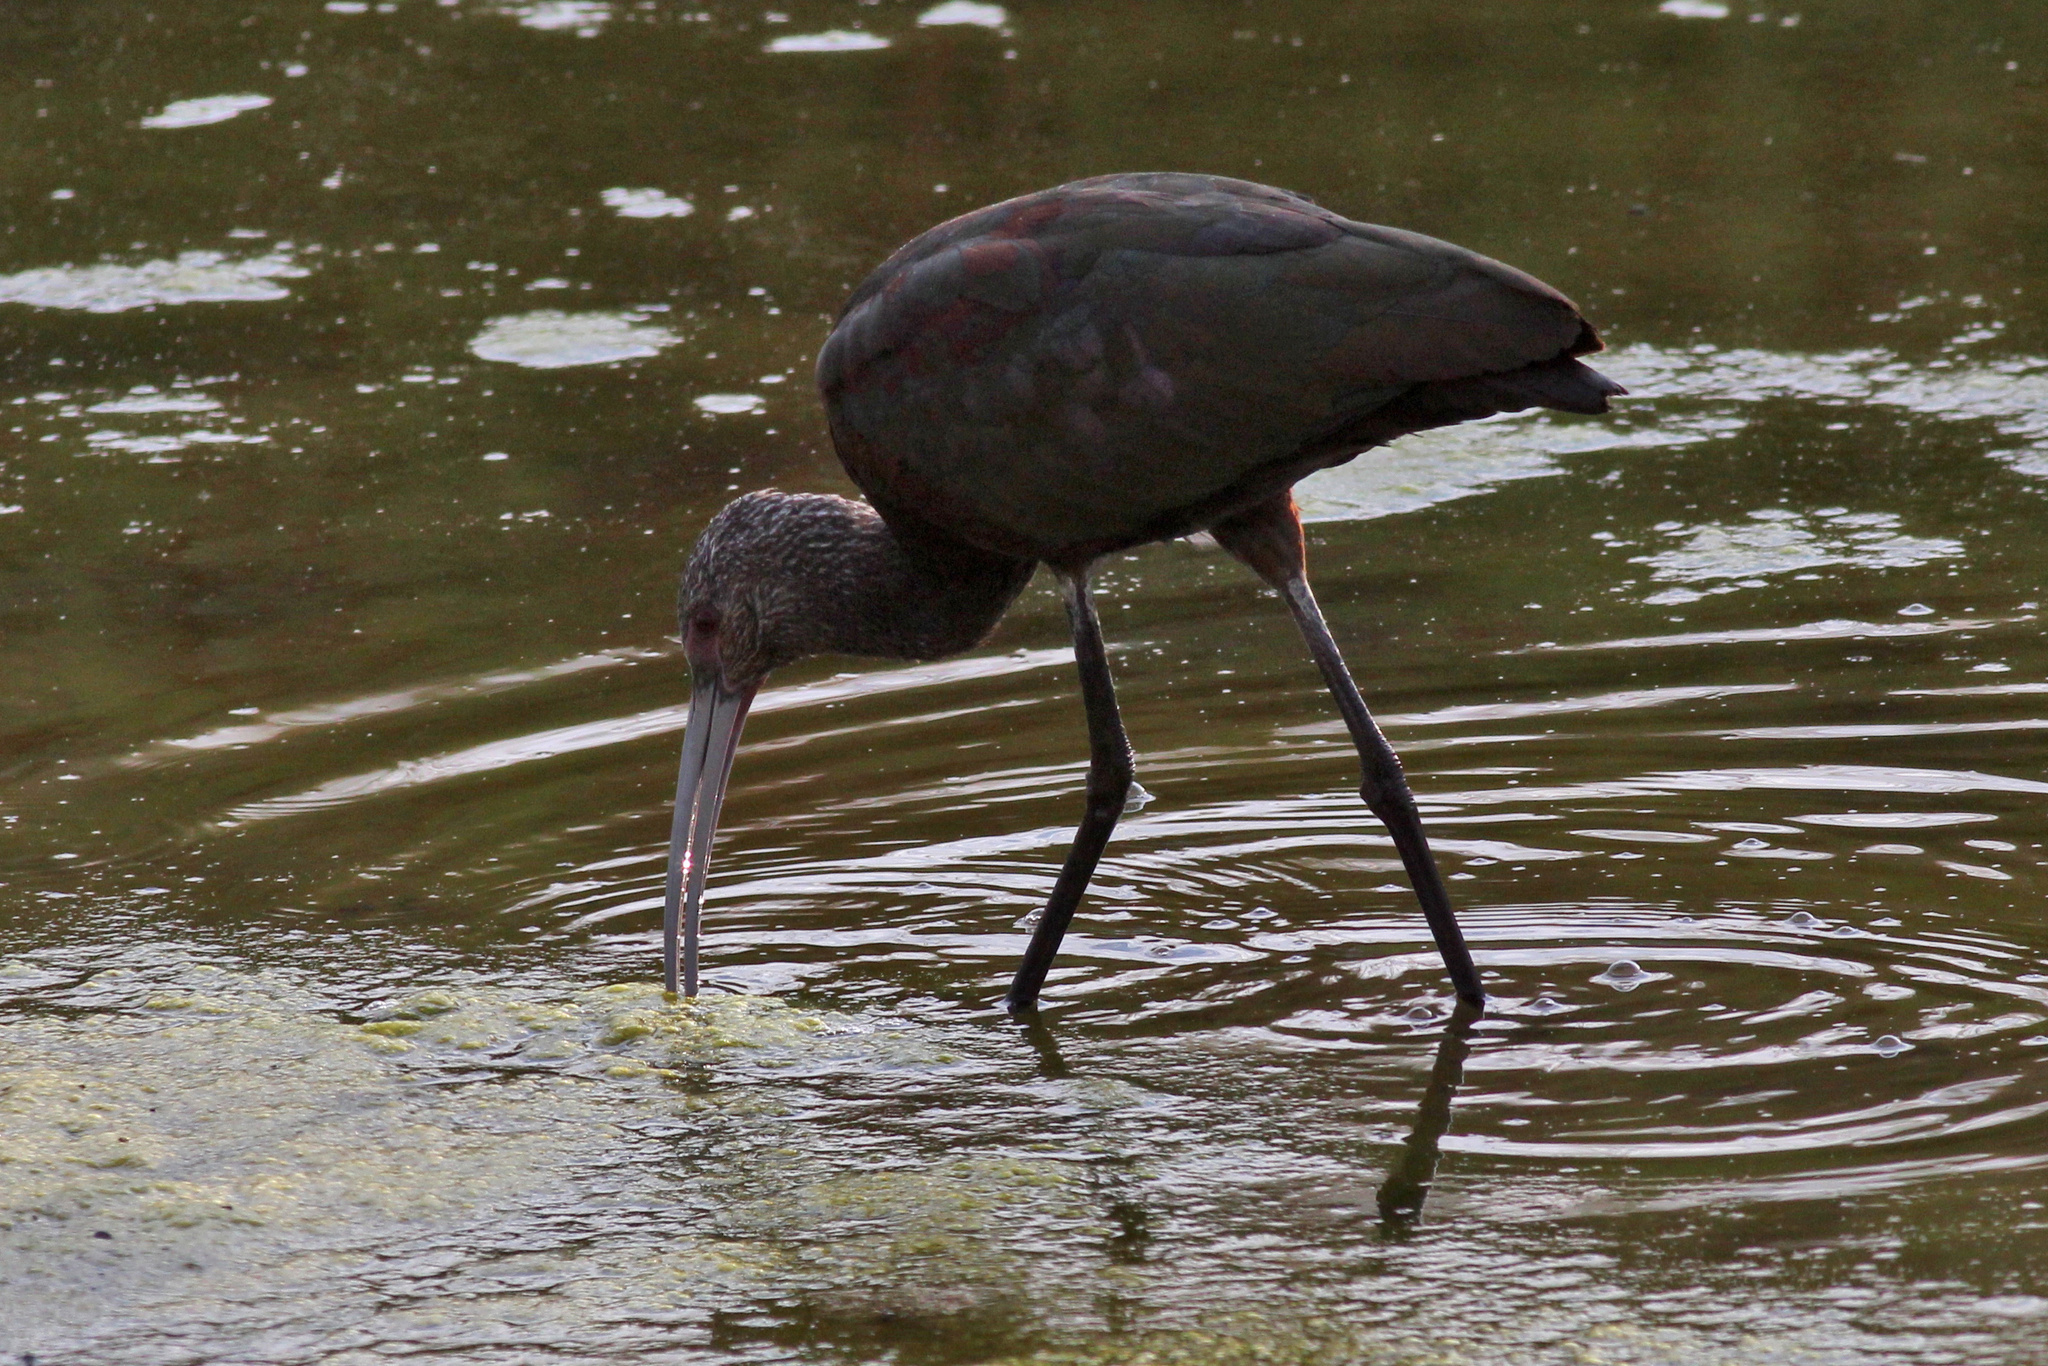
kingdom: Animalia
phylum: Chordata
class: Aves
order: Pelecaniformes
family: Threskiornithidae
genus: Plegadis
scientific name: Plegadis chihi
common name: White-faced ibis
